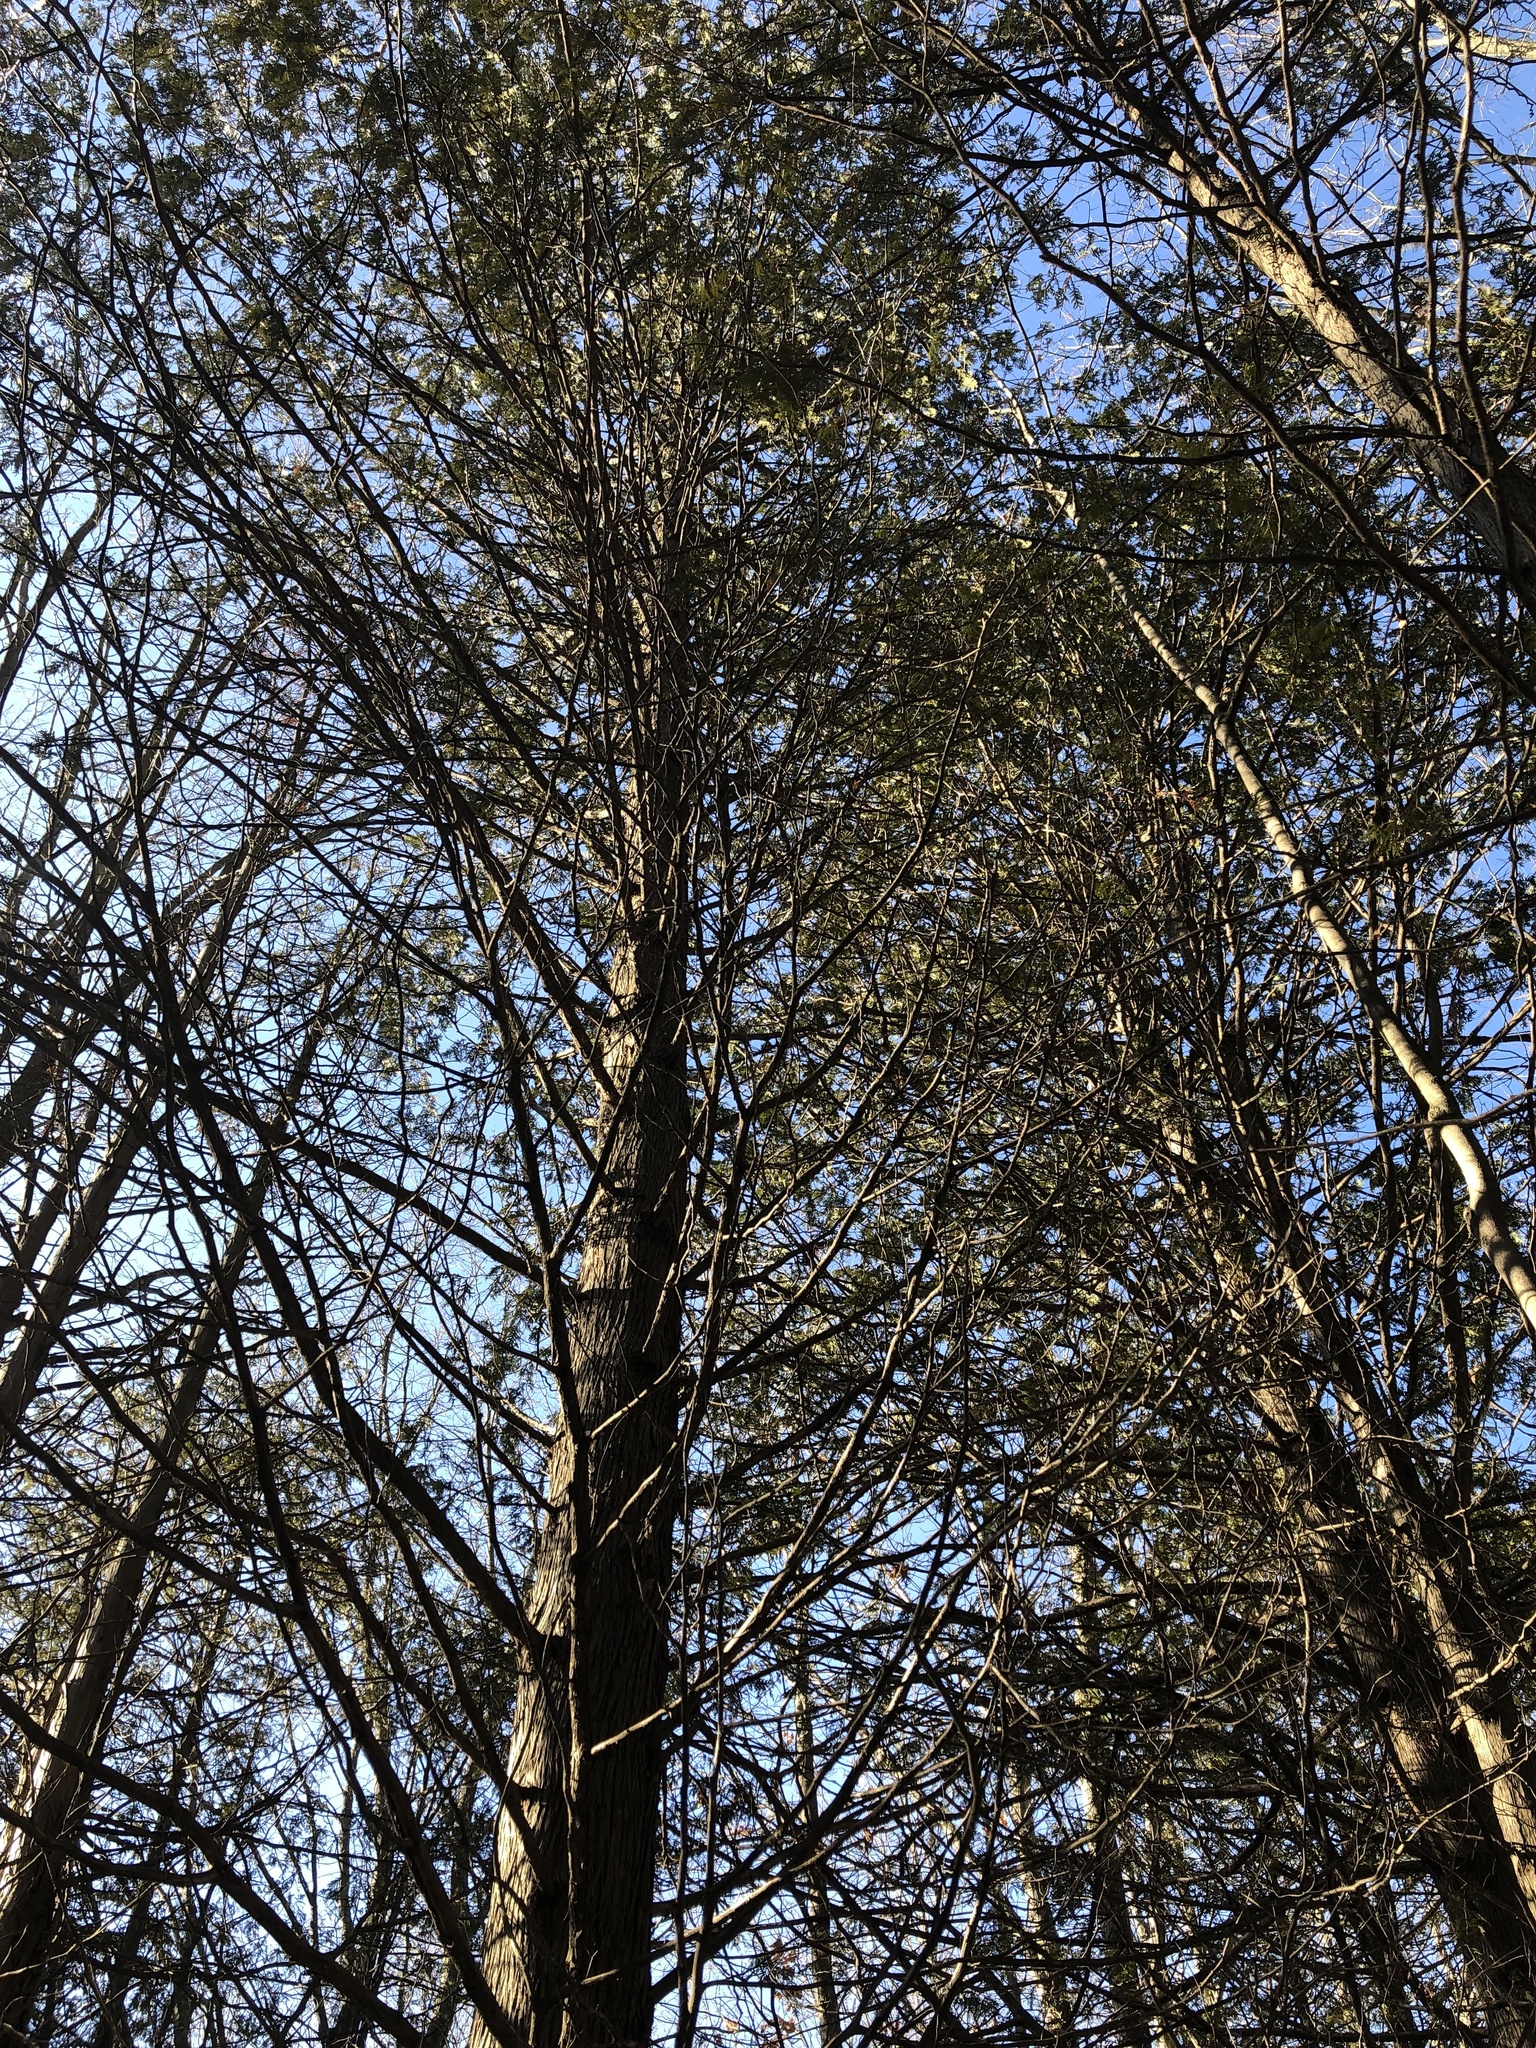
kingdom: Plantae
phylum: Tracheophyta
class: Pinopsida
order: Pinales
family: Cupressaceae
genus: Thuja
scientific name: Thuja occidentalis
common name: Northern white-cedar
